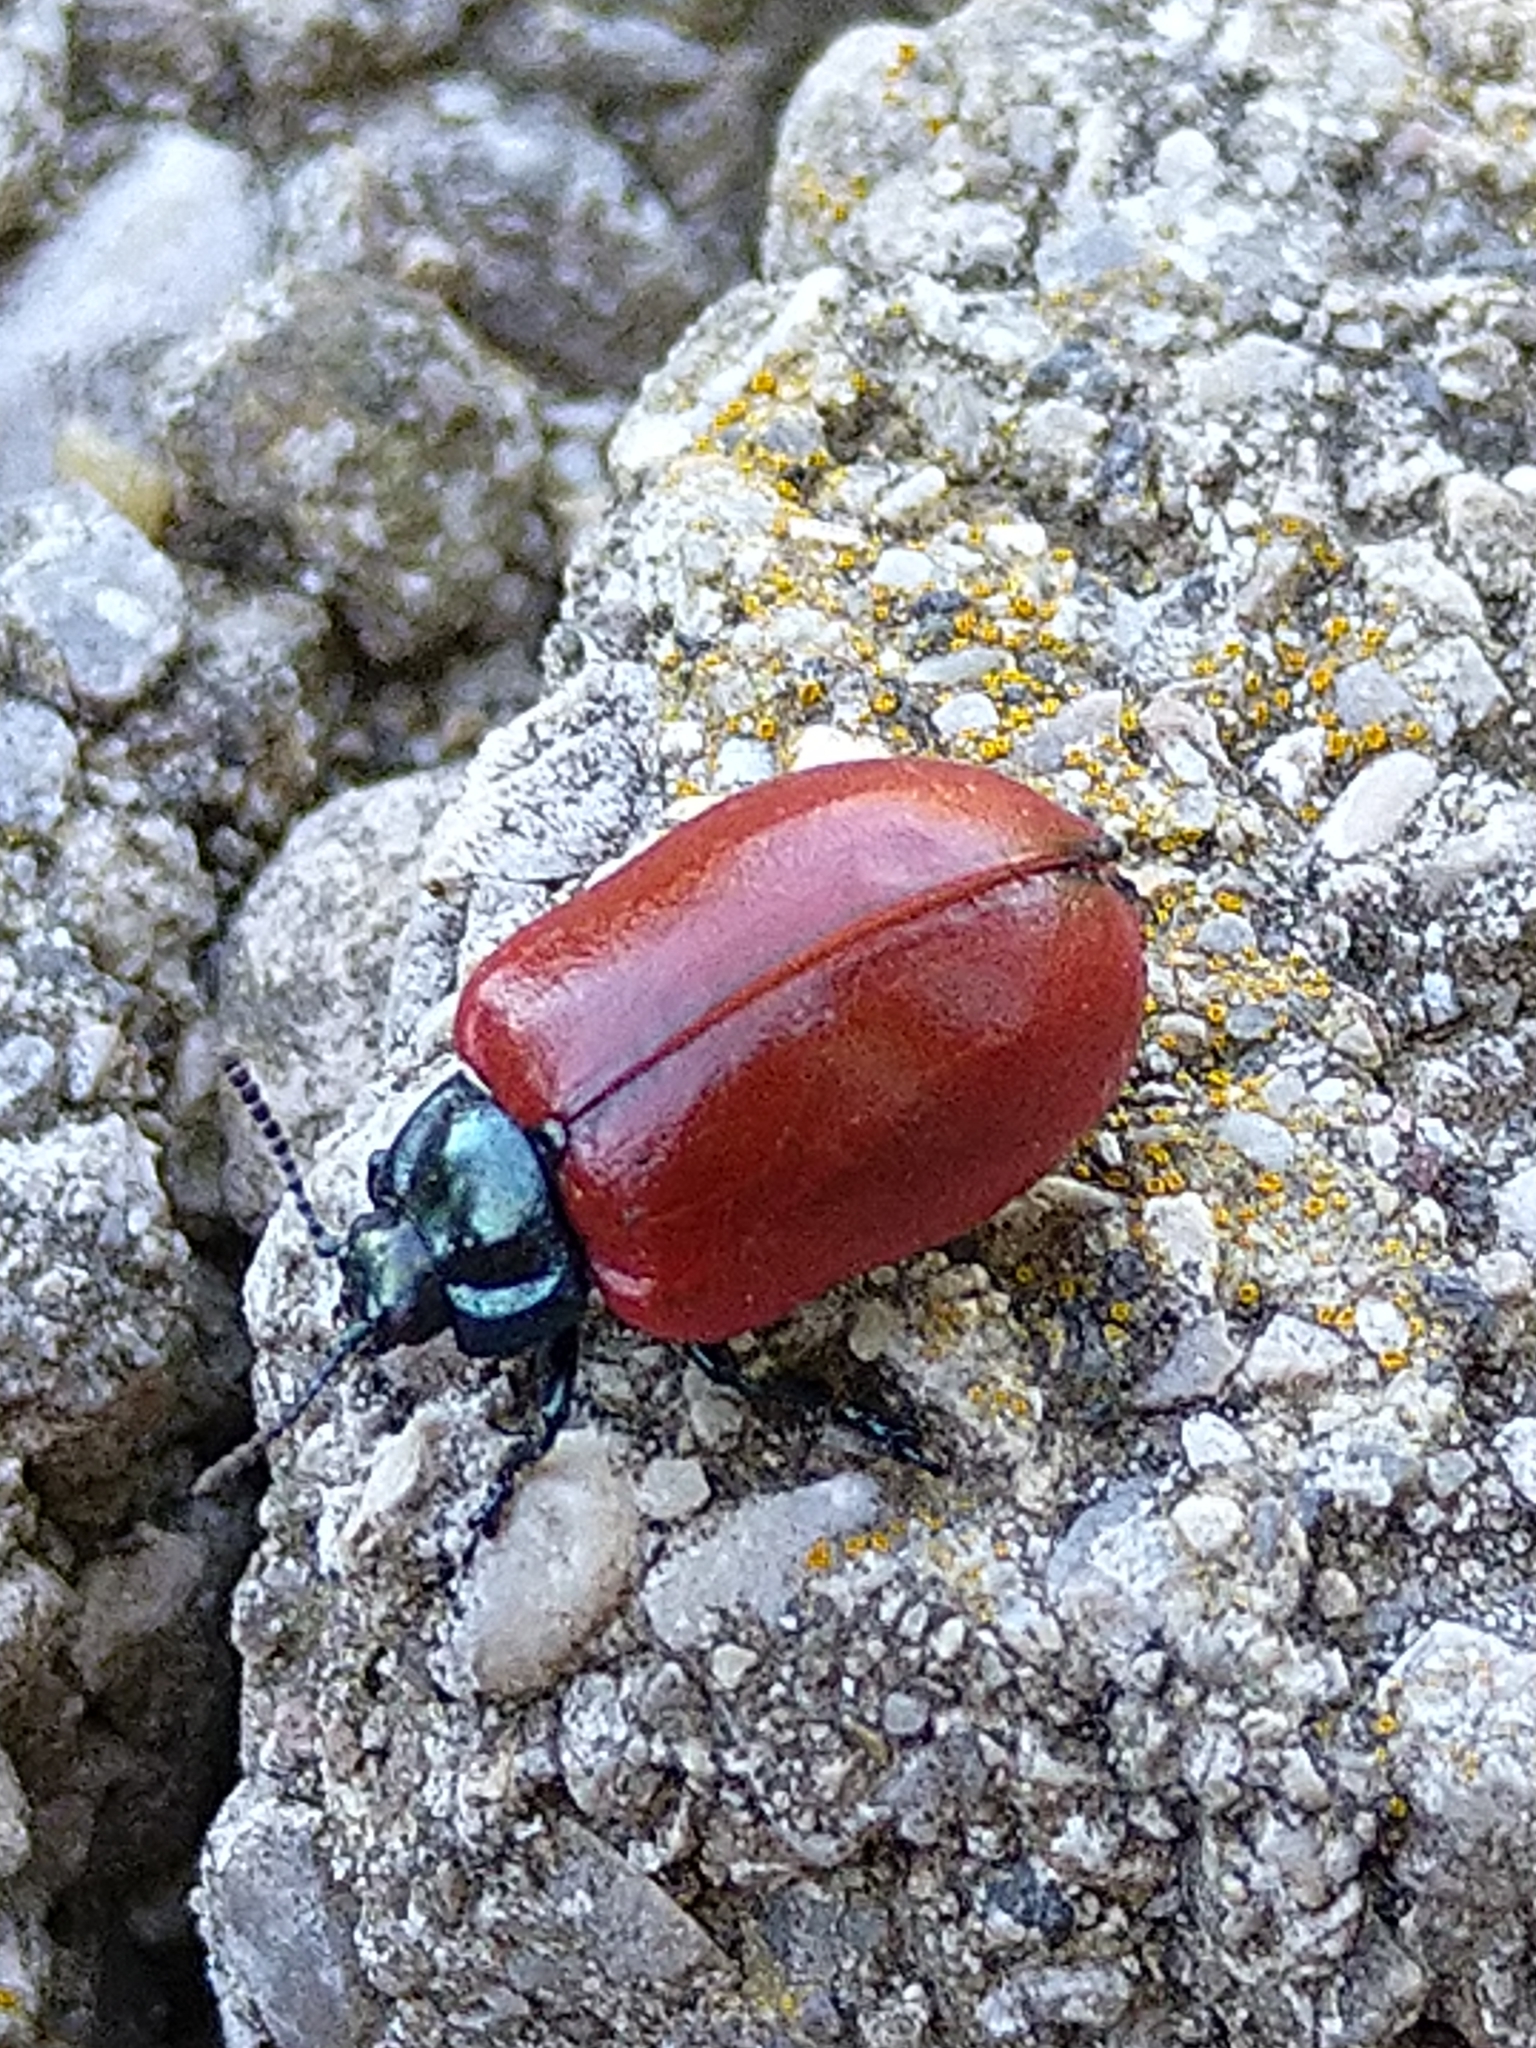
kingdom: Animalia
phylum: Arthropoda
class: Insecta
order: Coleoptera
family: Chrysomelidae
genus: Chrysomela
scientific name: Chrysomela populi
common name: Red poplar leaf beetle
